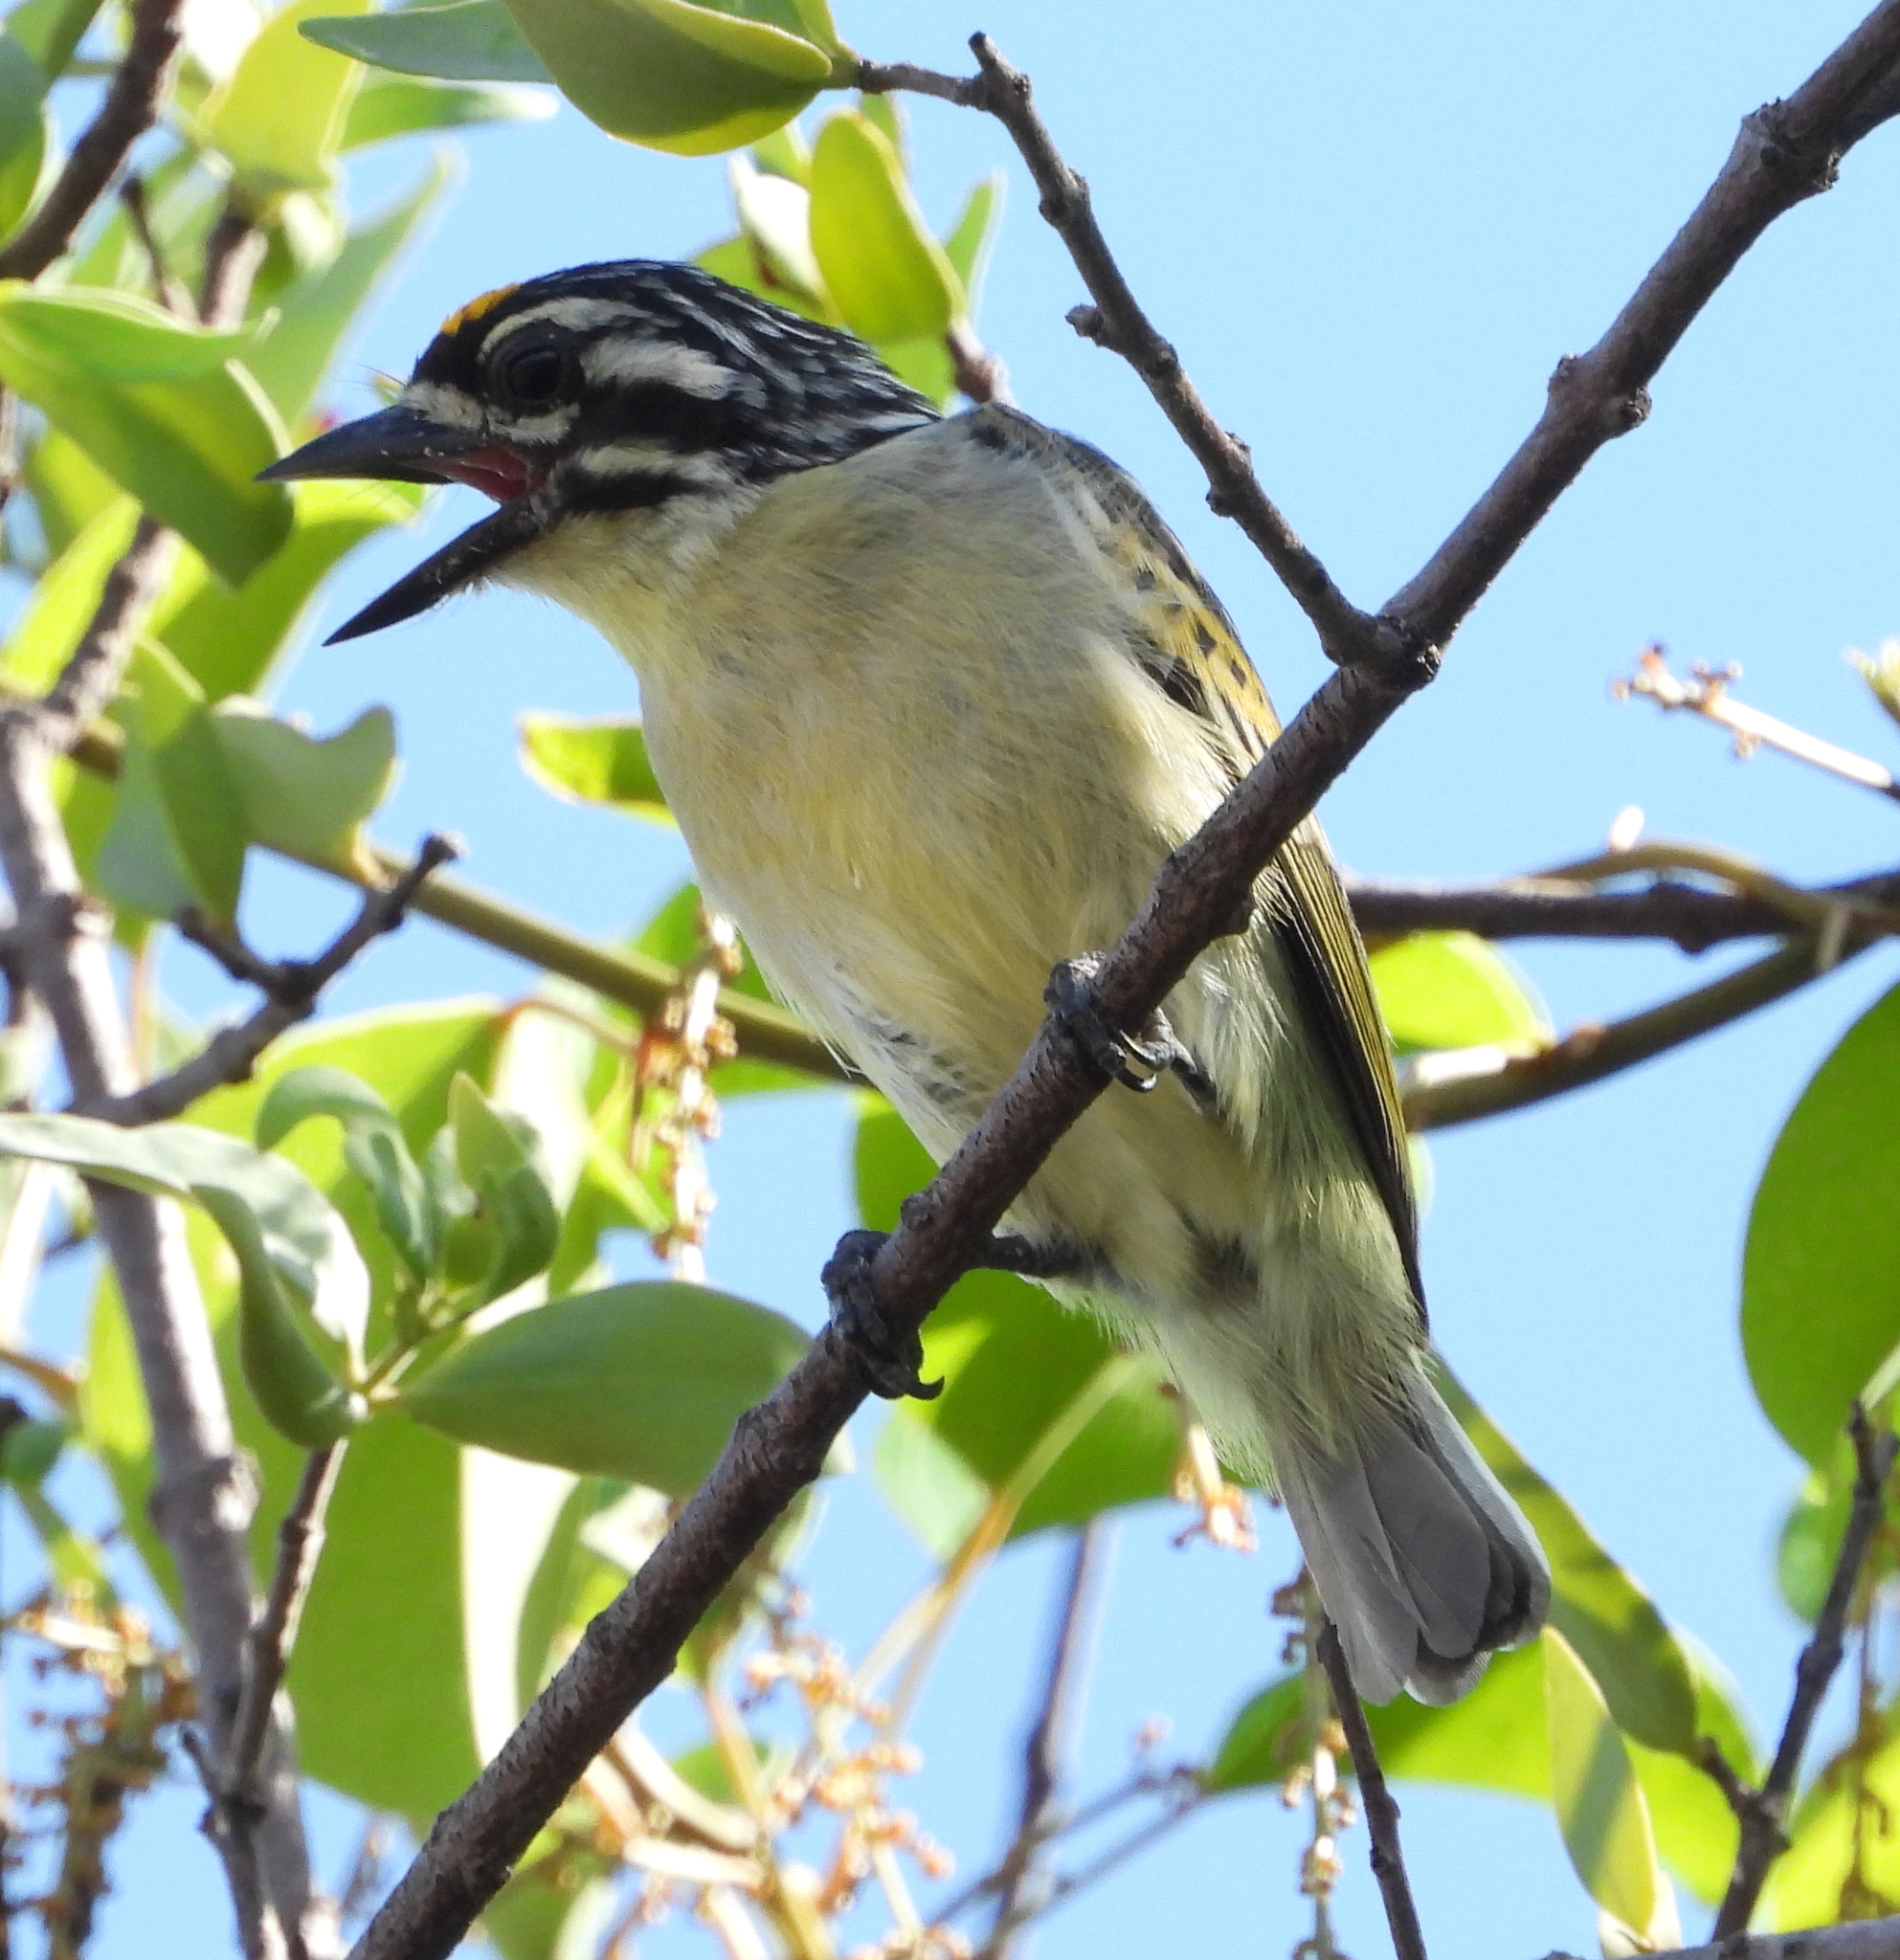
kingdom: Animalia
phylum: Chordata
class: Aves
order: Piciformes
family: Lybiidae
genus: Pogoniulus
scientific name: Pogoniulus chrysoconus
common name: Yellow-fronted tinkerbird
